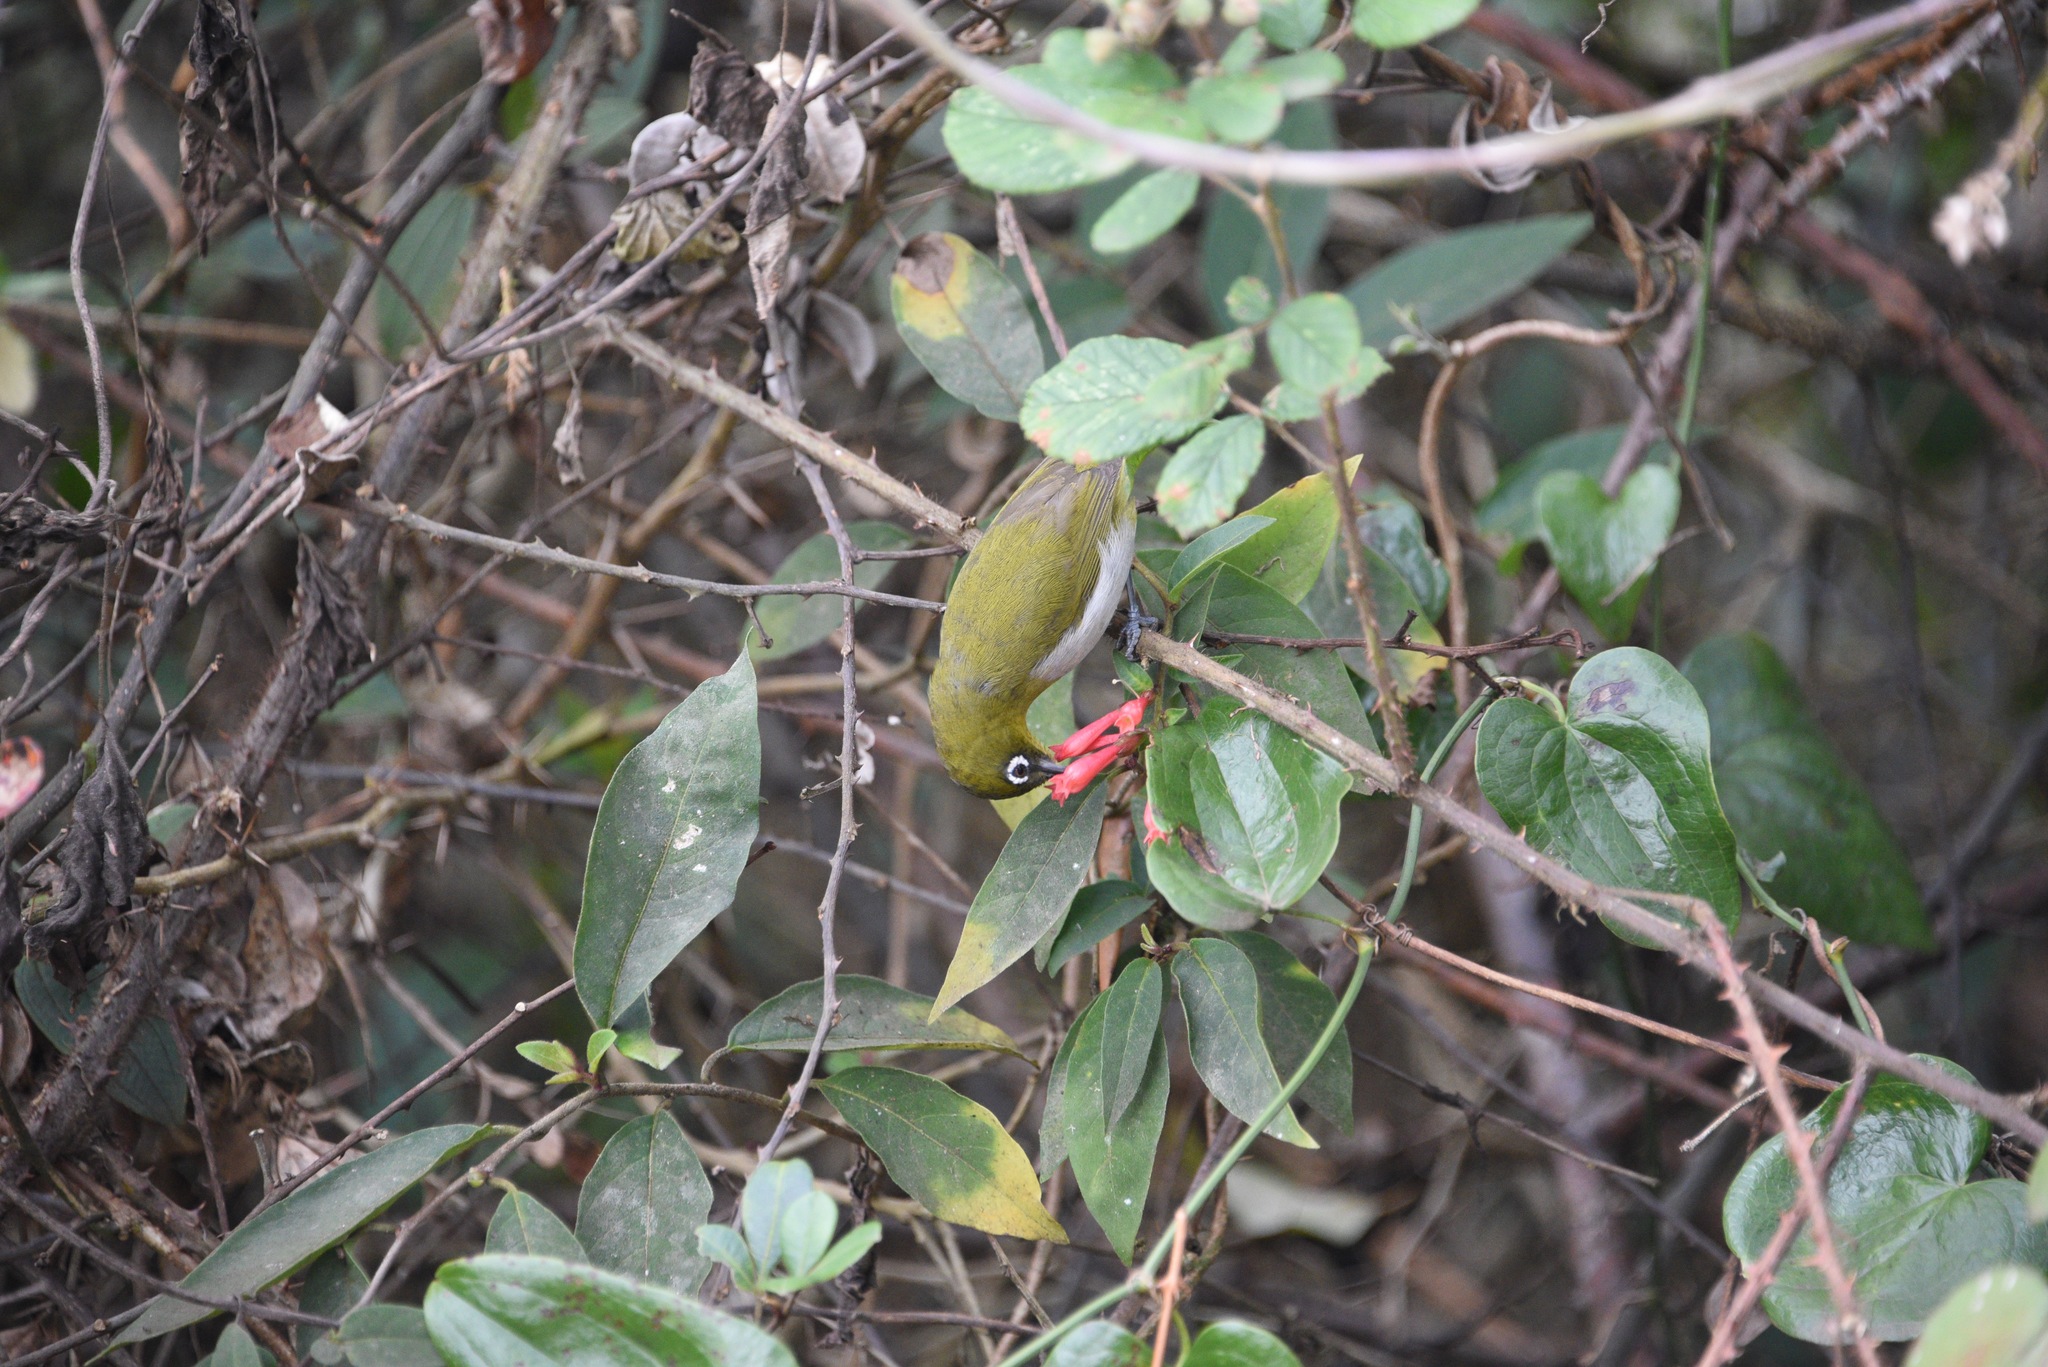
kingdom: Animalia
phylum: Chordata
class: Aves
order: Passeriformes
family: Zosteropidae
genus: Zosterops
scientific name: Zosterops ceylonensis
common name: Sri lanka white-eye
